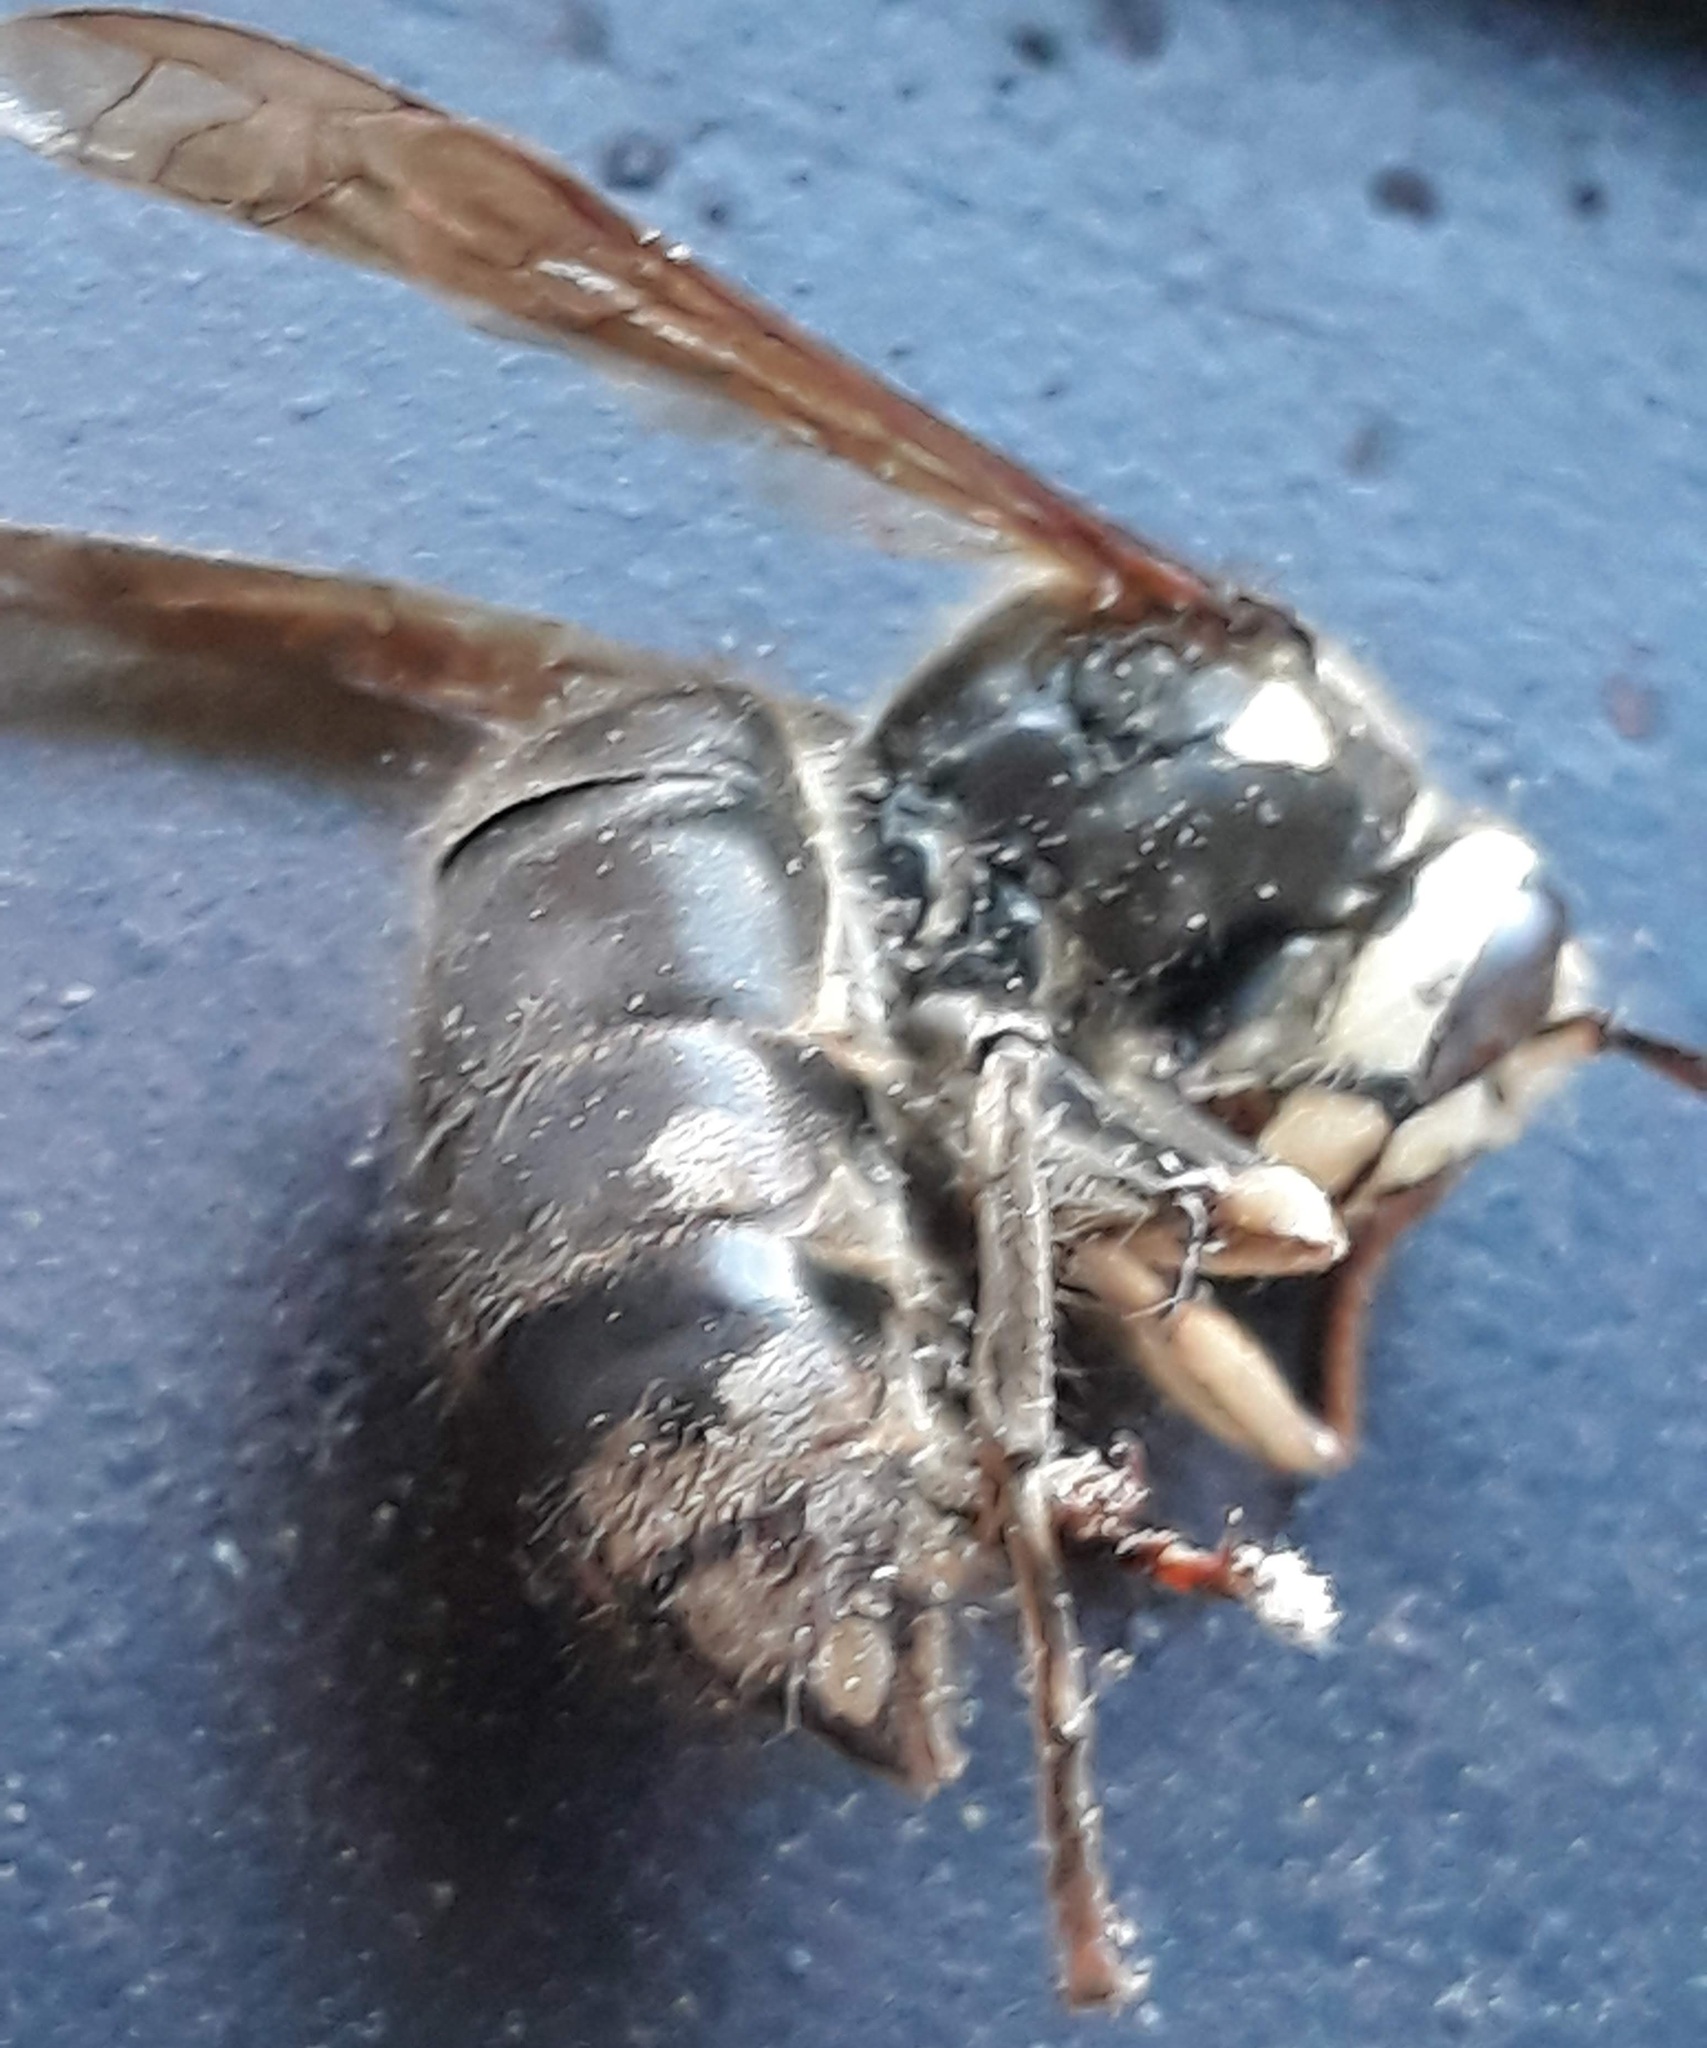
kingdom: Animalia
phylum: Arthropoda
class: Insecta
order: Hymenoptera
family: Vespidae
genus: Dolichovespula
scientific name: Dolichovespula maculata
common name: Bald-faced hornet
